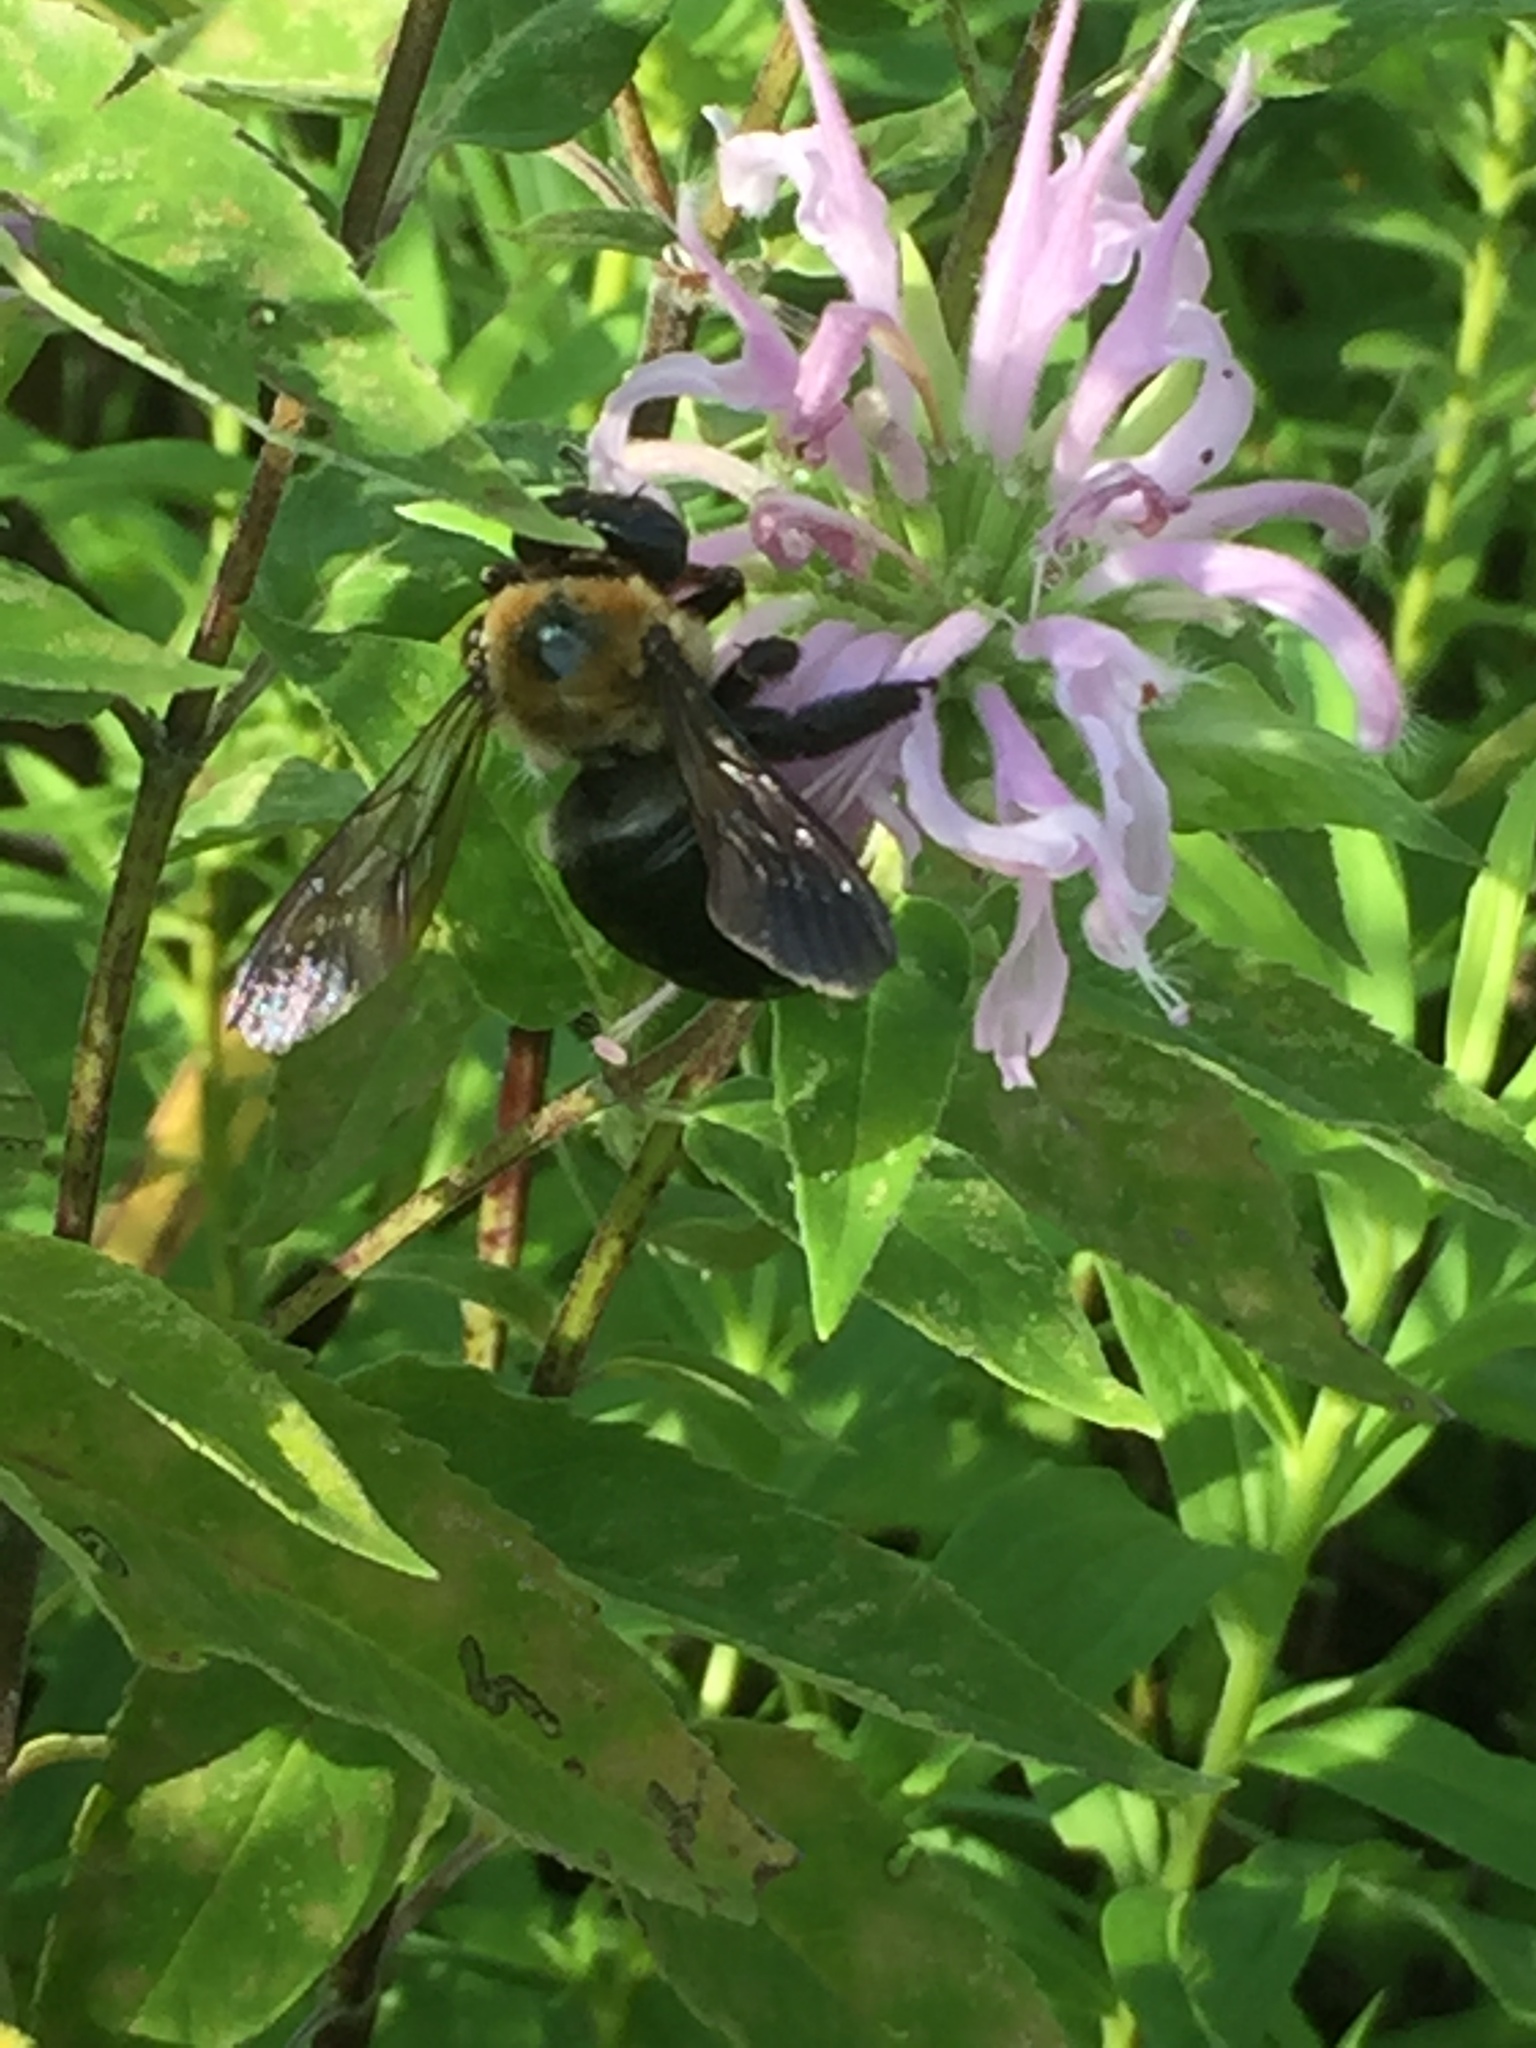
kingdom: Animalia
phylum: Arthropoda
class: Insecta
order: Hymenoptera
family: Apidae
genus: Xylocopa
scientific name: Xylocopa virginica
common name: Carpenter bee
